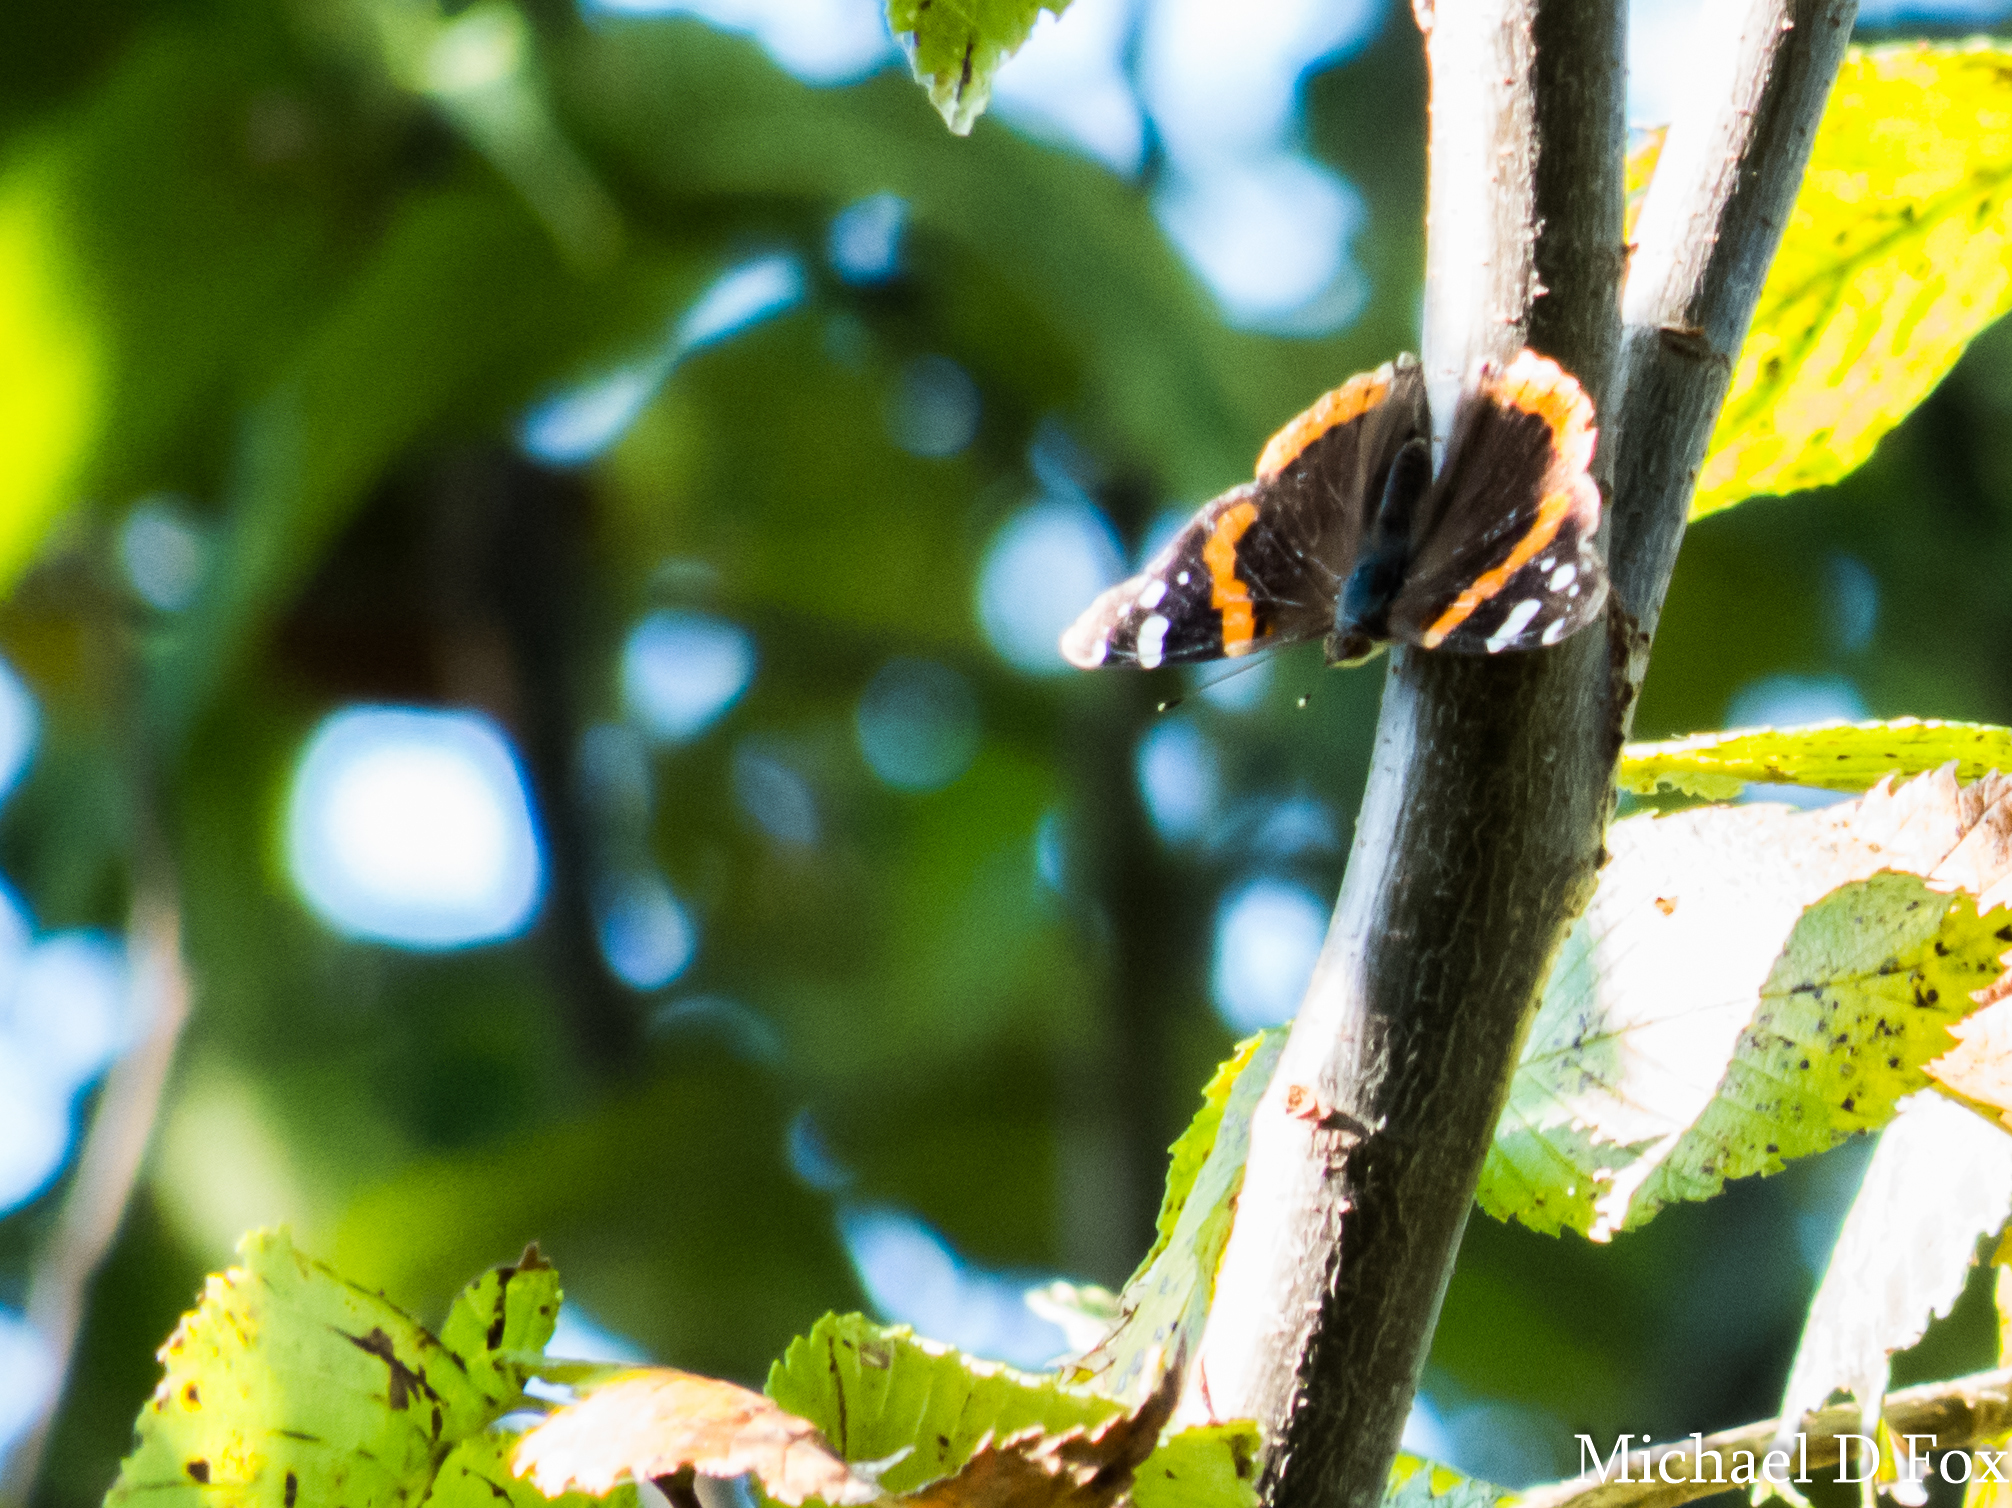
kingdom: Animalia
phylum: Arthropoda
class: Insecta
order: Lepidoptera
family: Nymphalidae
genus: Vanessa
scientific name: Vanessa atalanta
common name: Red admiral
